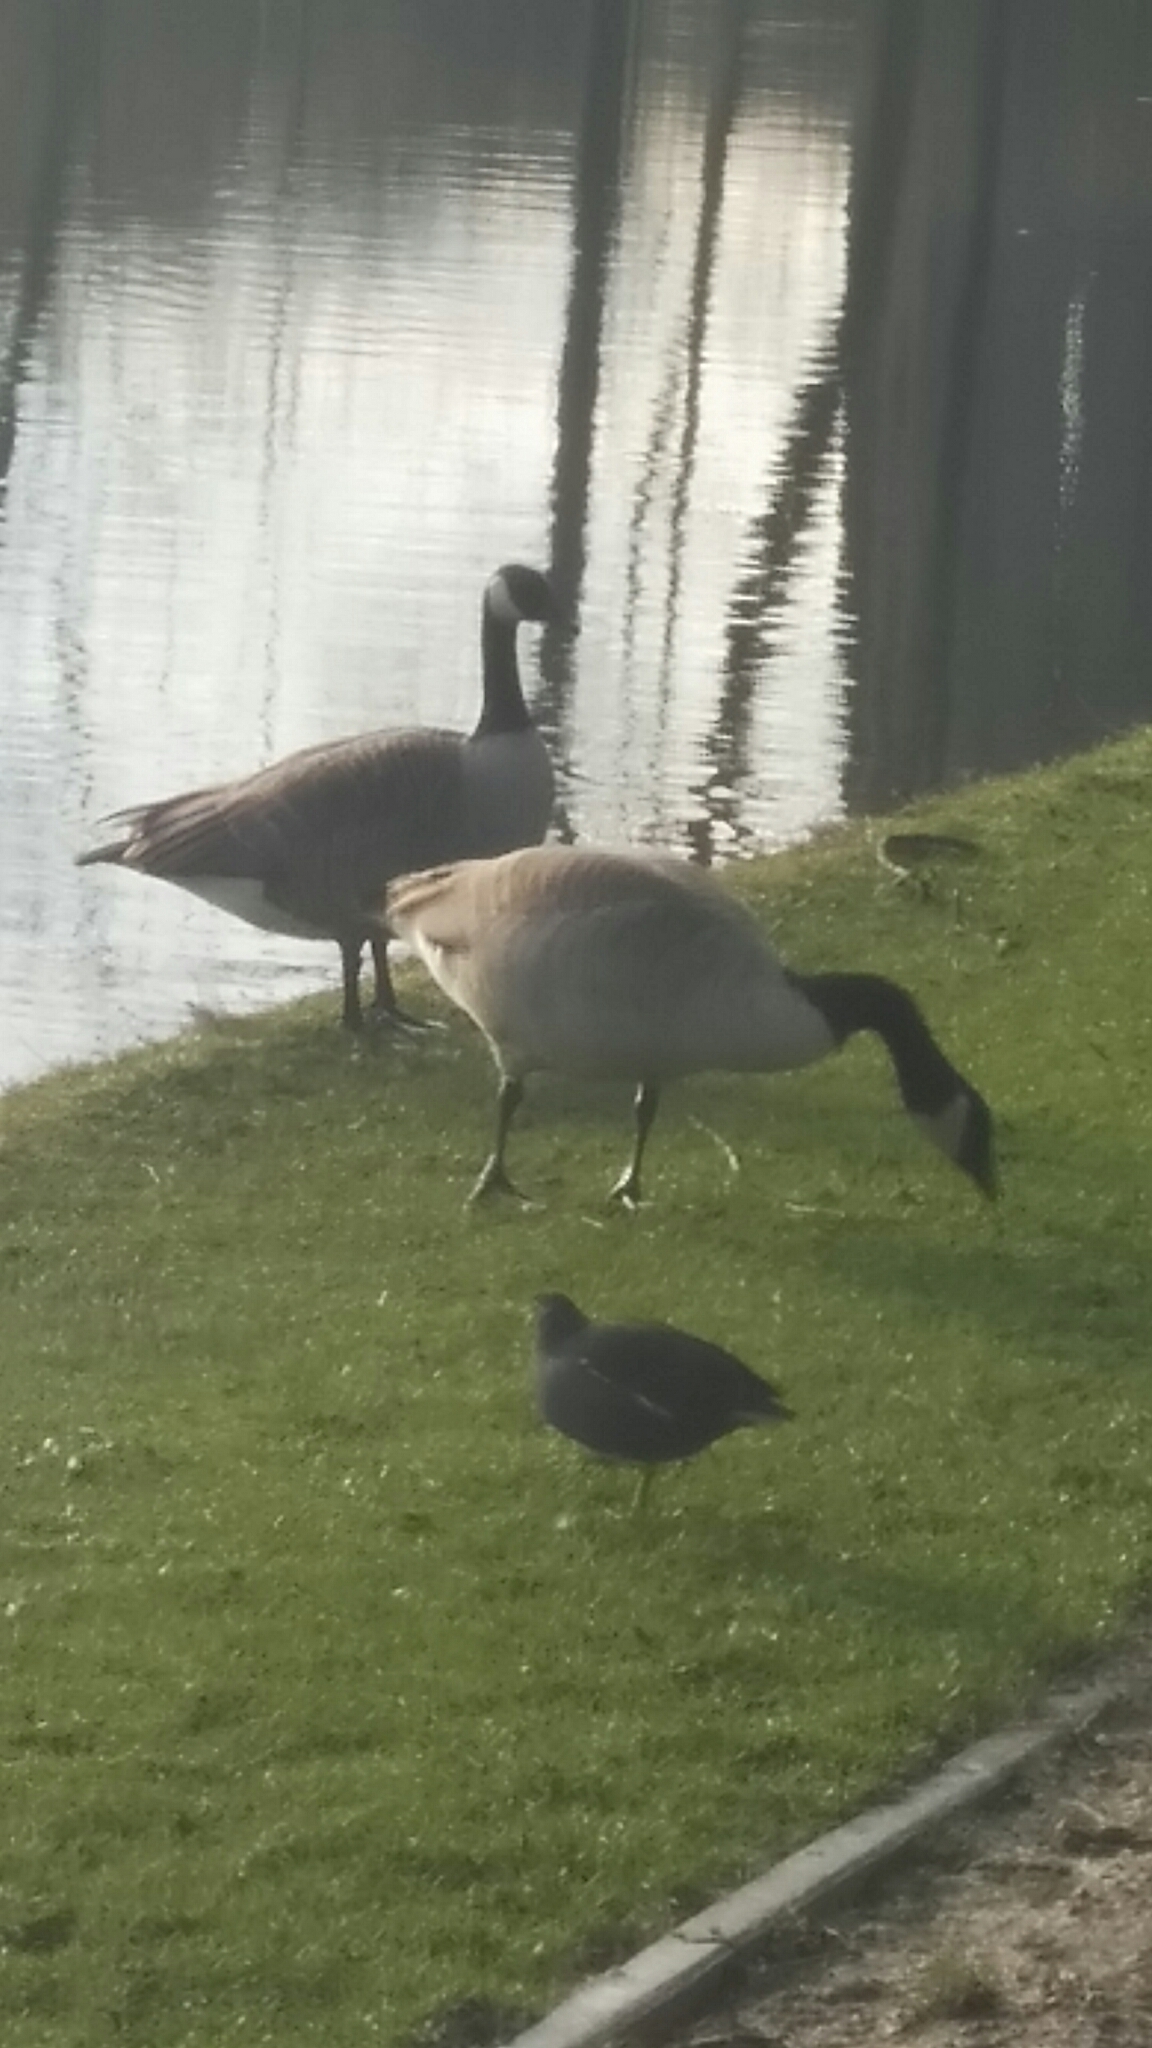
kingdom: Animalia
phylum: Chordata
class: Aves
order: Anseriformes
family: Anatidae
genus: Branta
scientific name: Branta canadensis
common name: Canada goose
